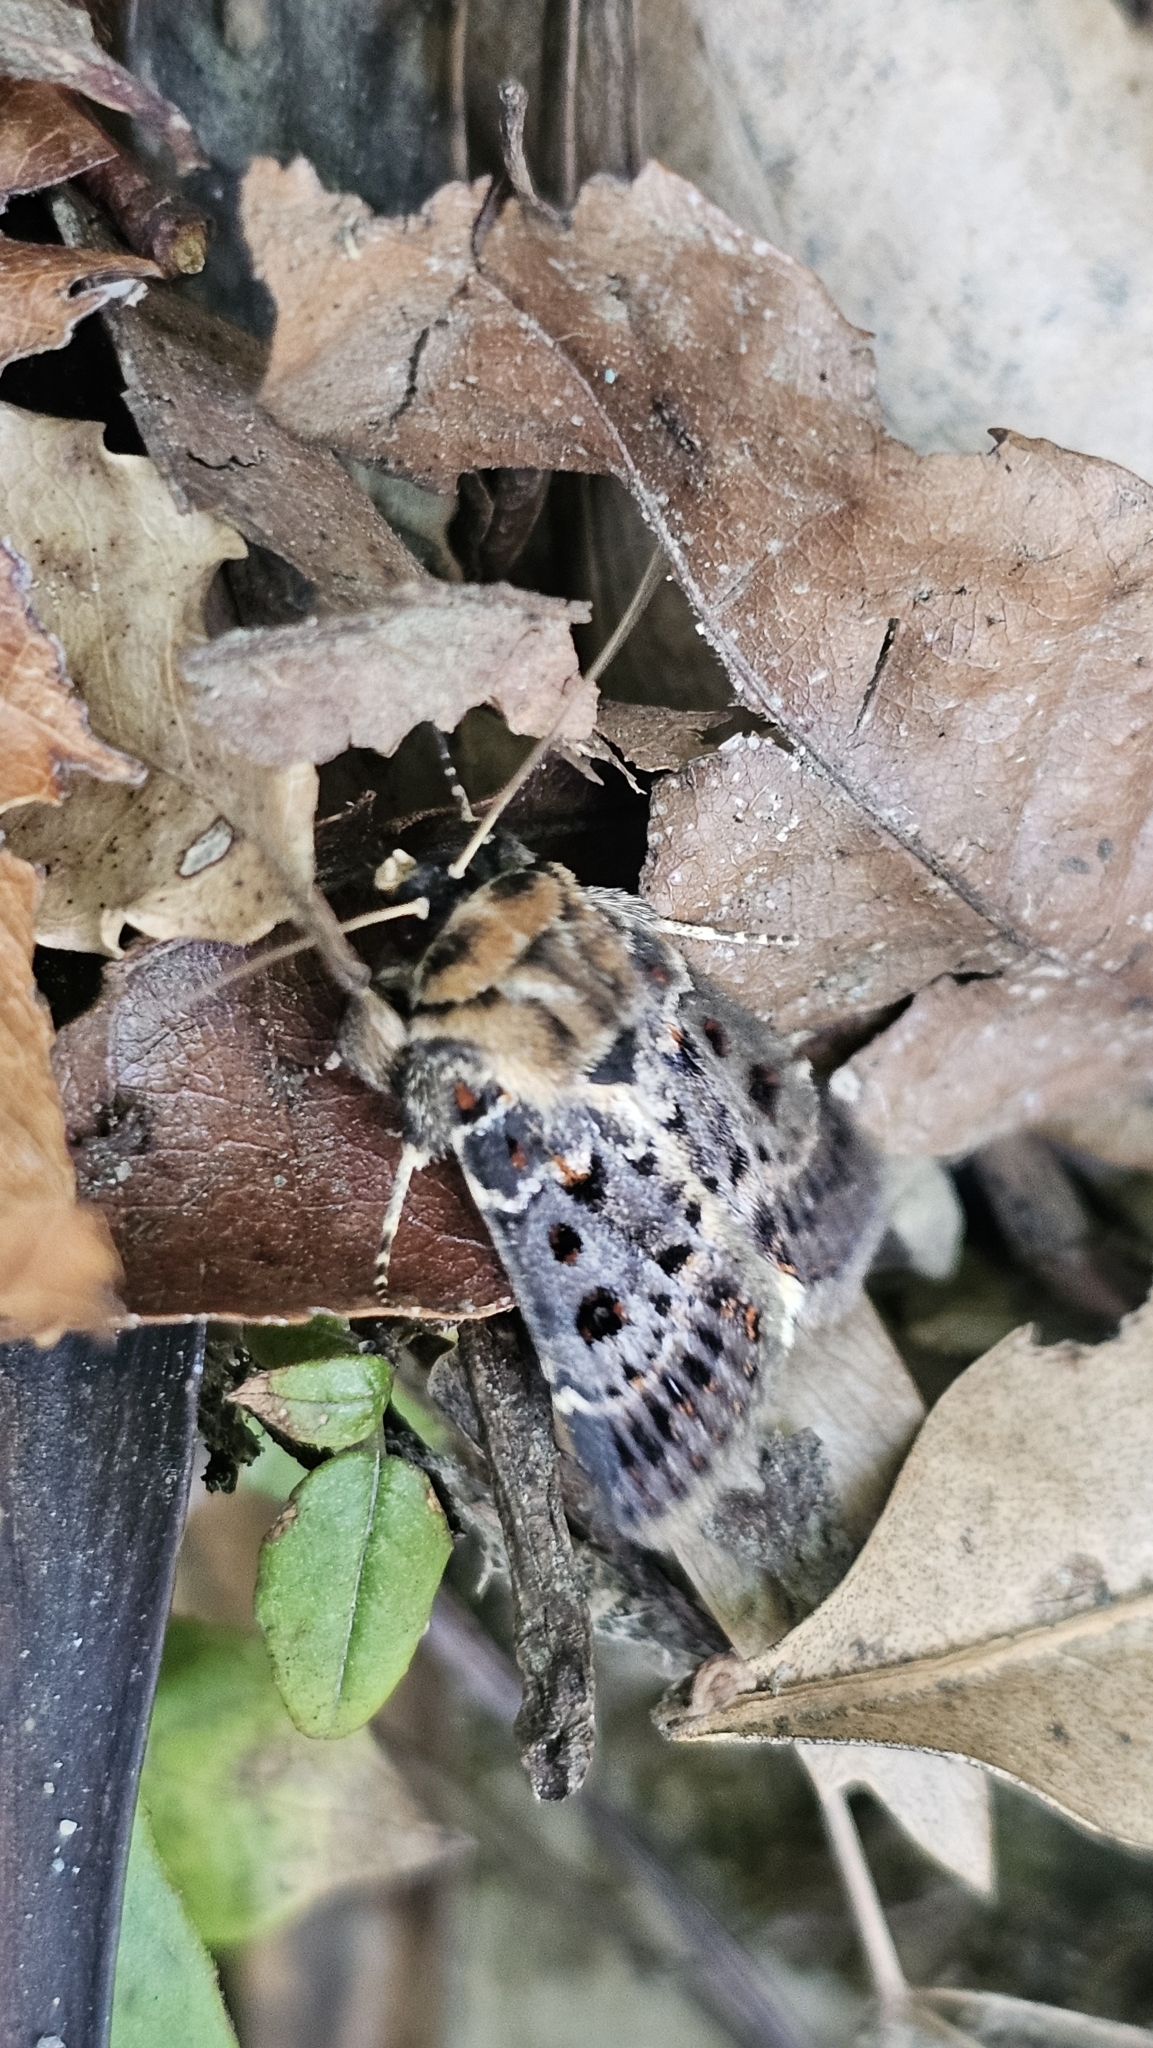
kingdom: Animalia
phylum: Arthropoda
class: Insecta
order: Lepidoptera
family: Noctuidae
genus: Proteuxoa
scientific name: Proteuxoa sanguinipuncta
